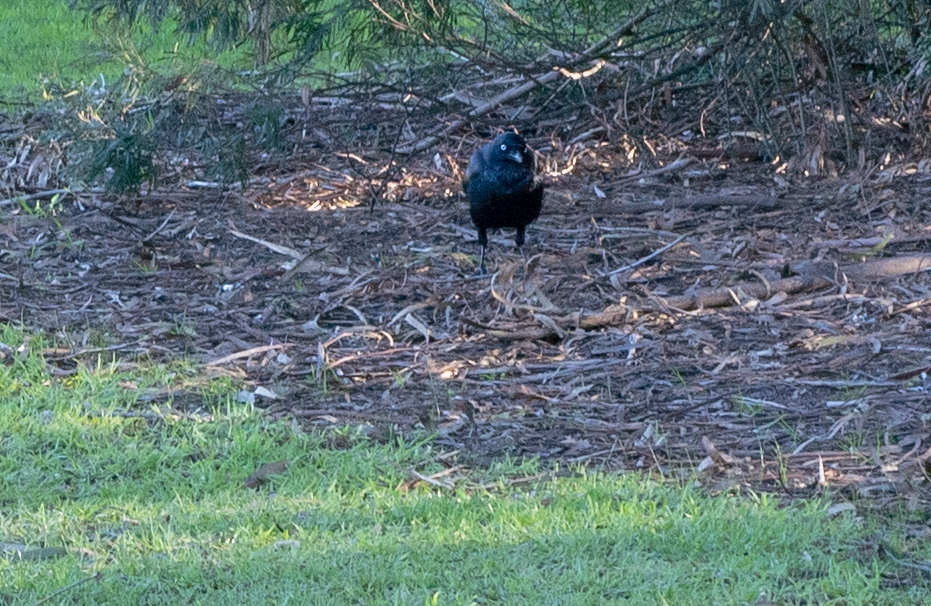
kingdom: Animalia
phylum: Chordata
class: Aves
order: Passeriformes
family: Corvidae
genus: Corvus
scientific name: Corvus mellori
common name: Little raven
